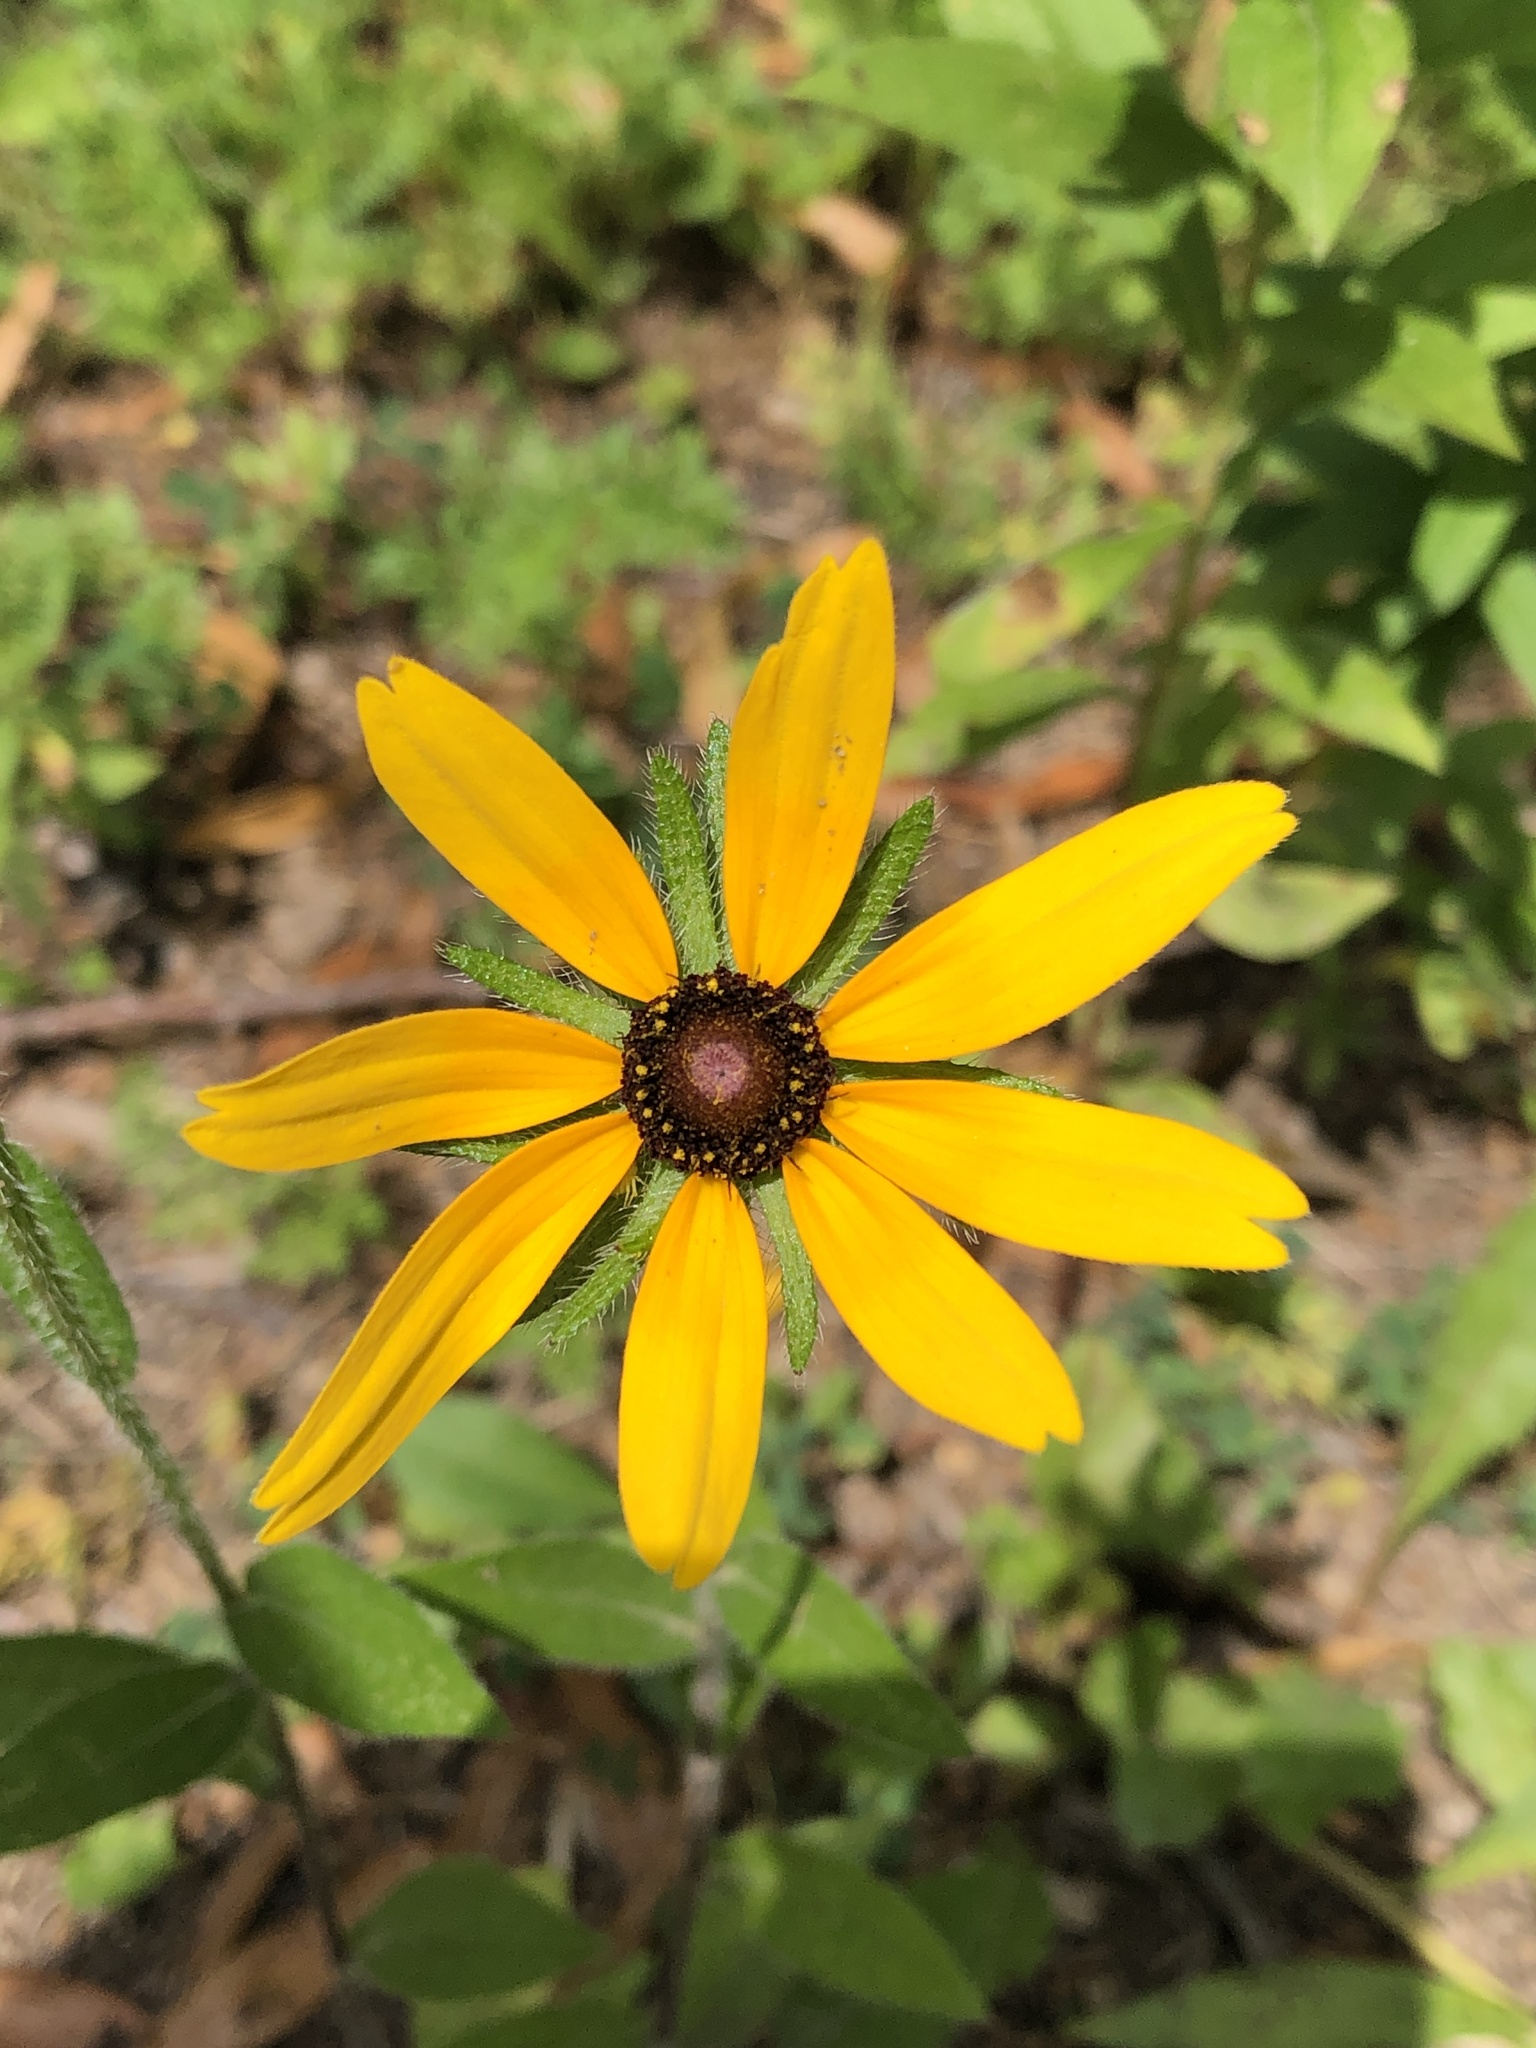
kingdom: Plantae
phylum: Tracheophyta
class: Magnoliopsida
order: Asterales
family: Asteraceae
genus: Rudbeckia
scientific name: Rudbeckia hirta
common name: Black-eyed-susan
